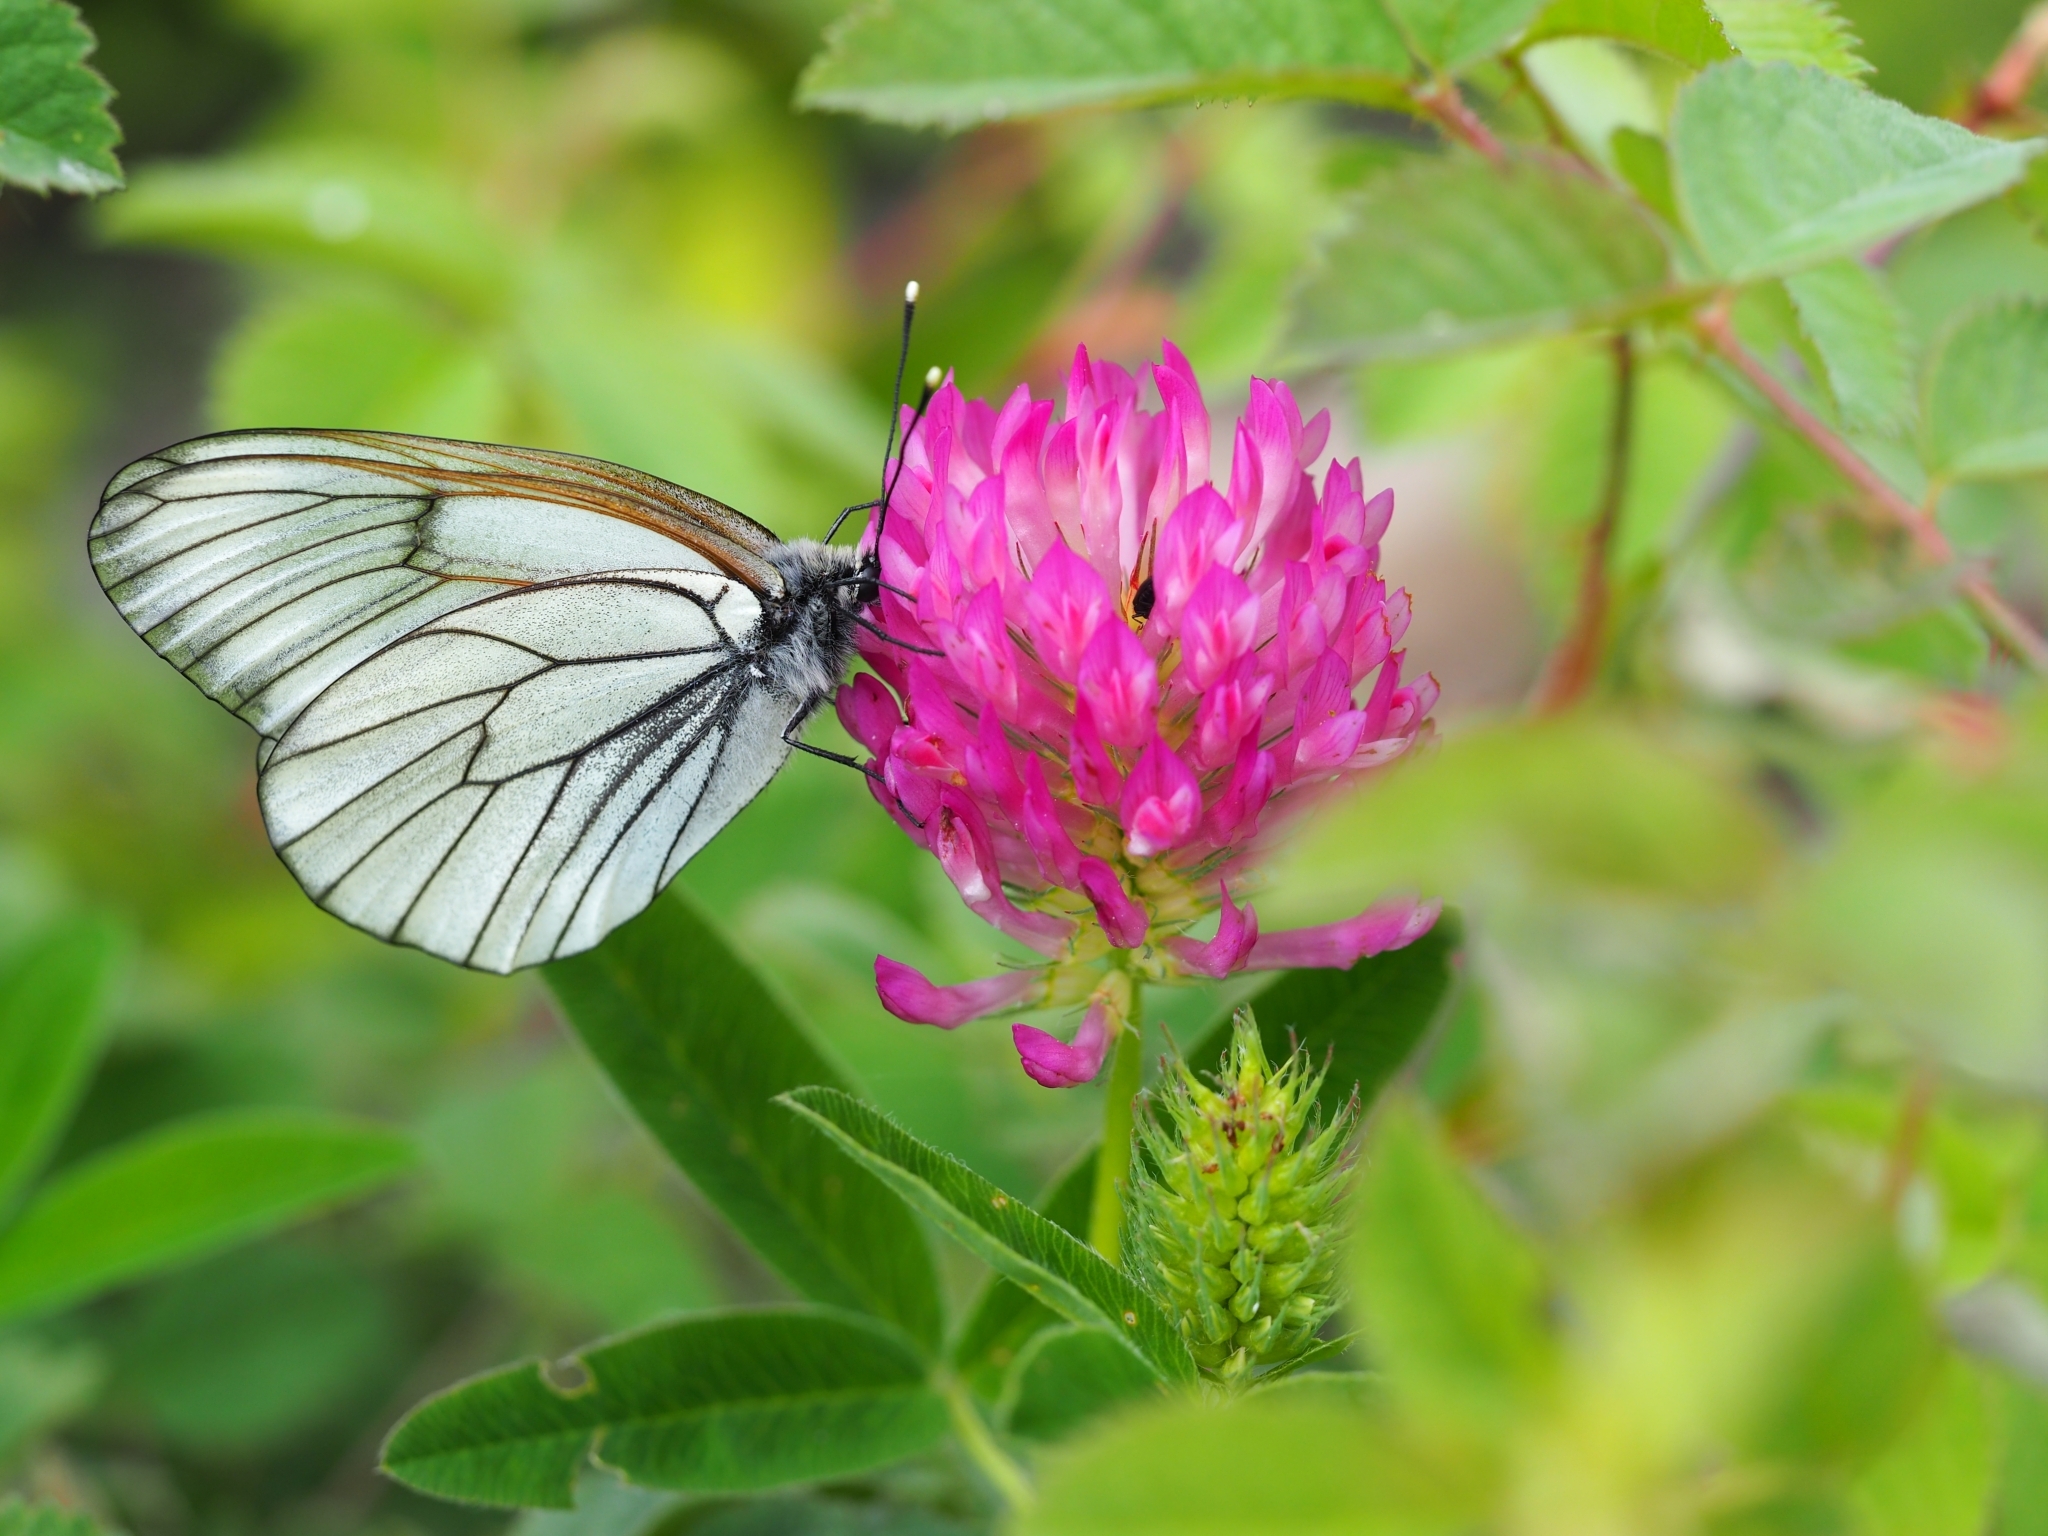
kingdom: Animalia
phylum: Arthropoda
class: Insecta
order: Lepidoptera
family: Pieridae
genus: Aporia
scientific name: Aporia crataegi
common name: Black-veined white
